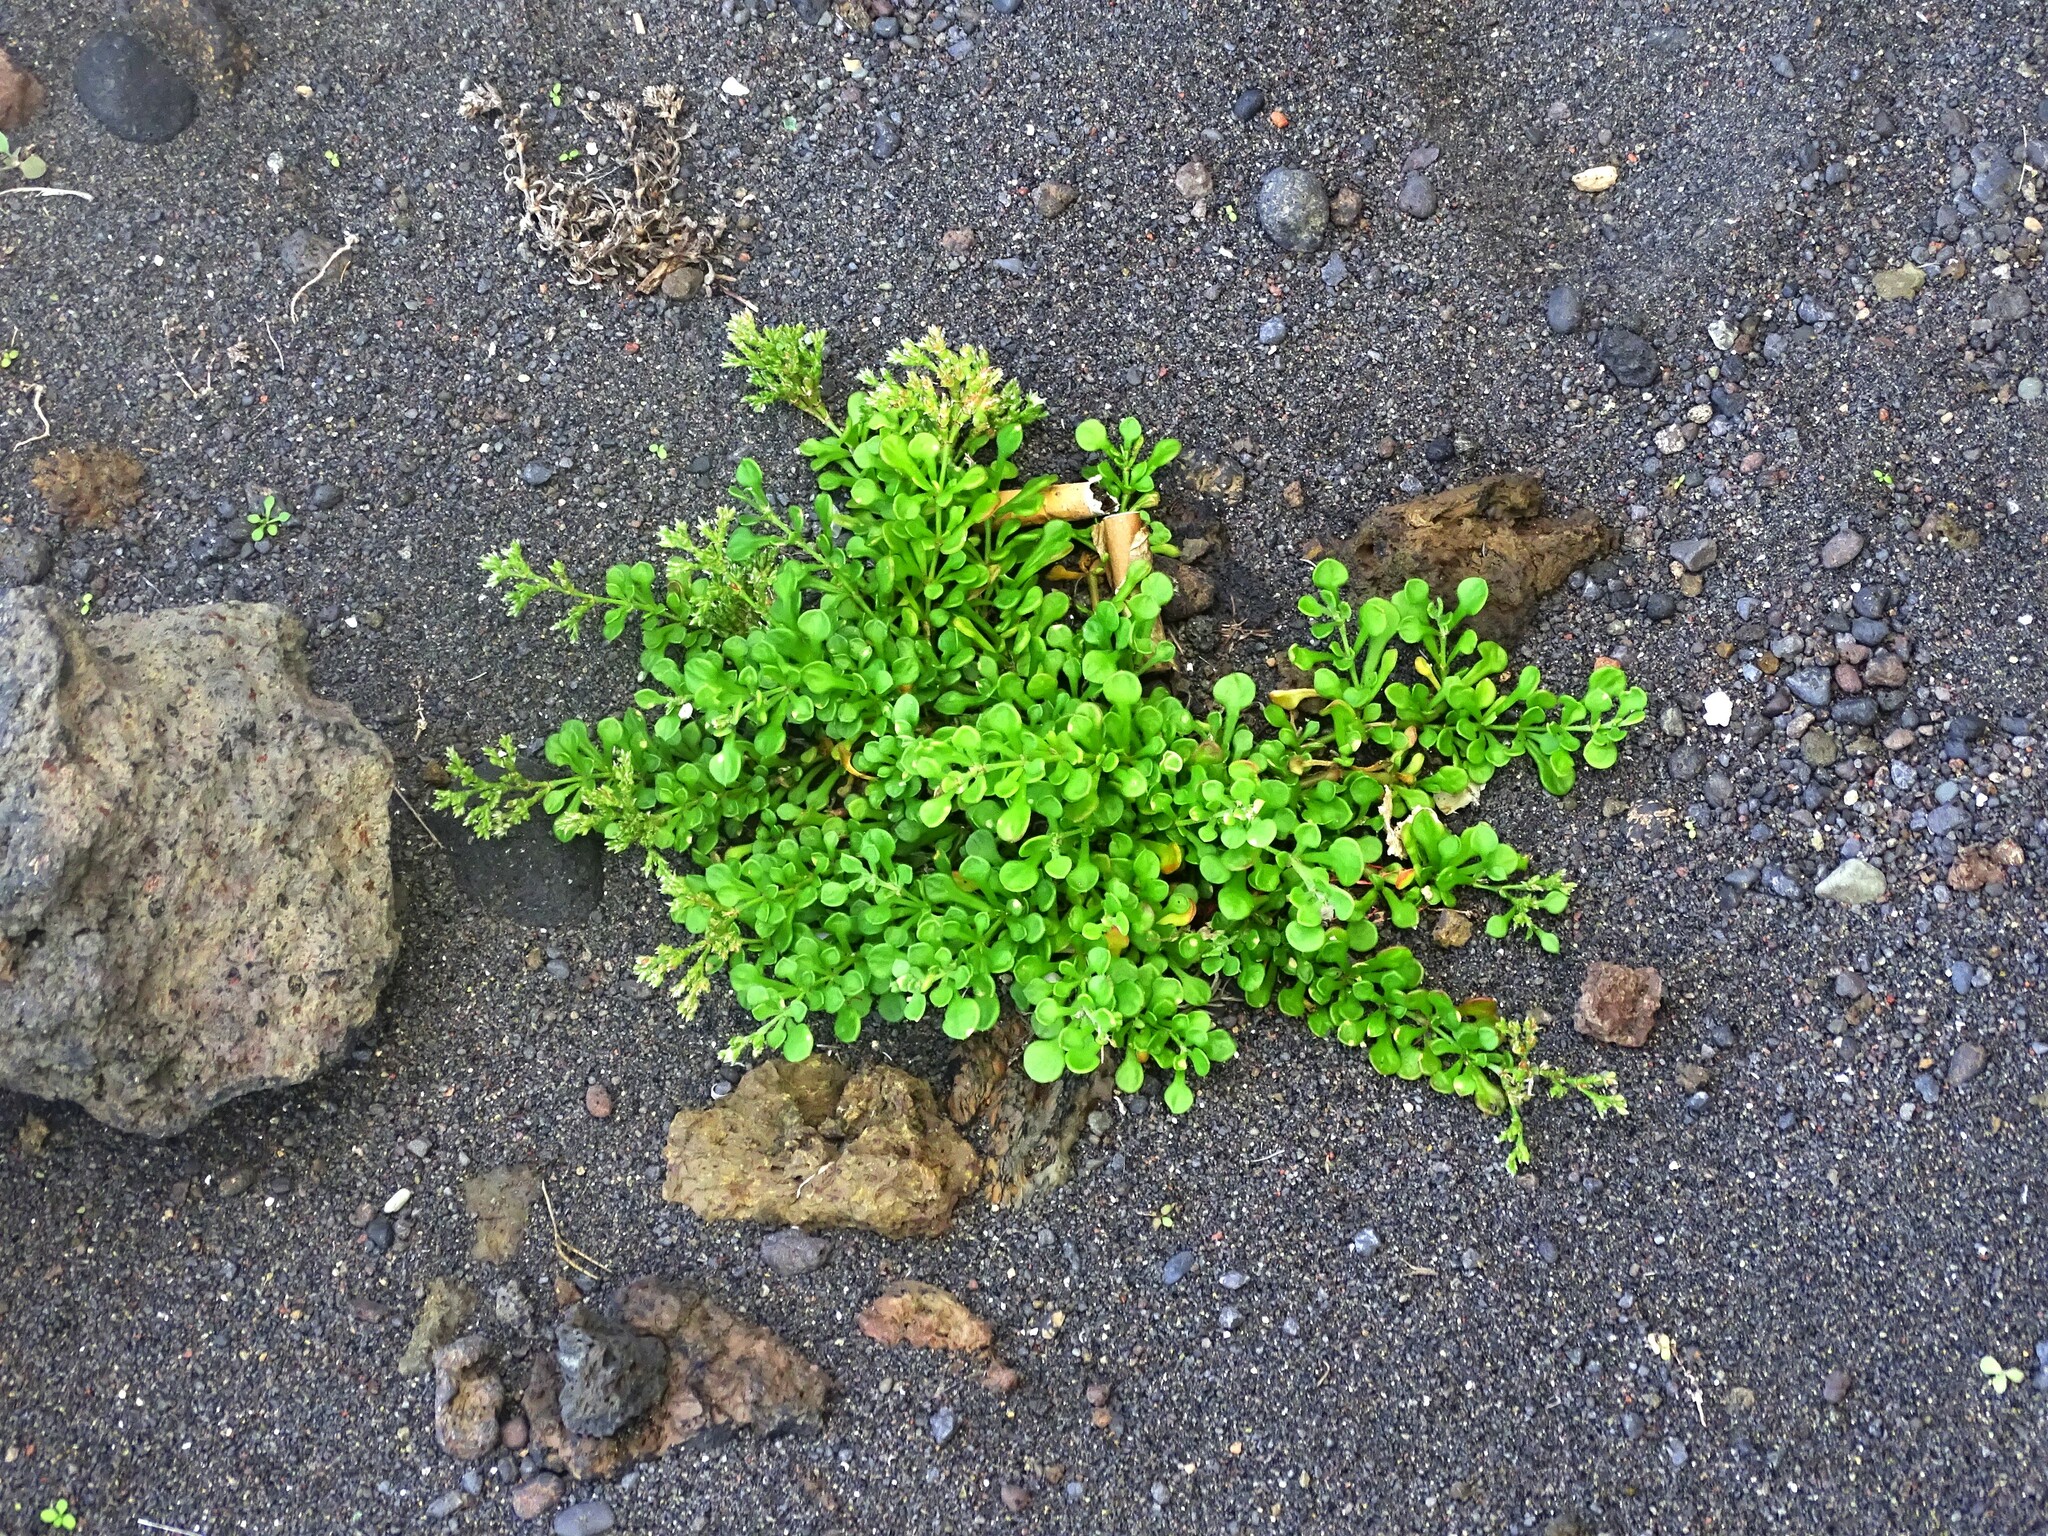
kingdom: Plantae
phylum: Tracheophyta
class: Magnoliopsida
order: Caryophyllales
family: Caryophyllaceae
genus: Polycarpaea
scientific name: Polycarpaea divaricata
